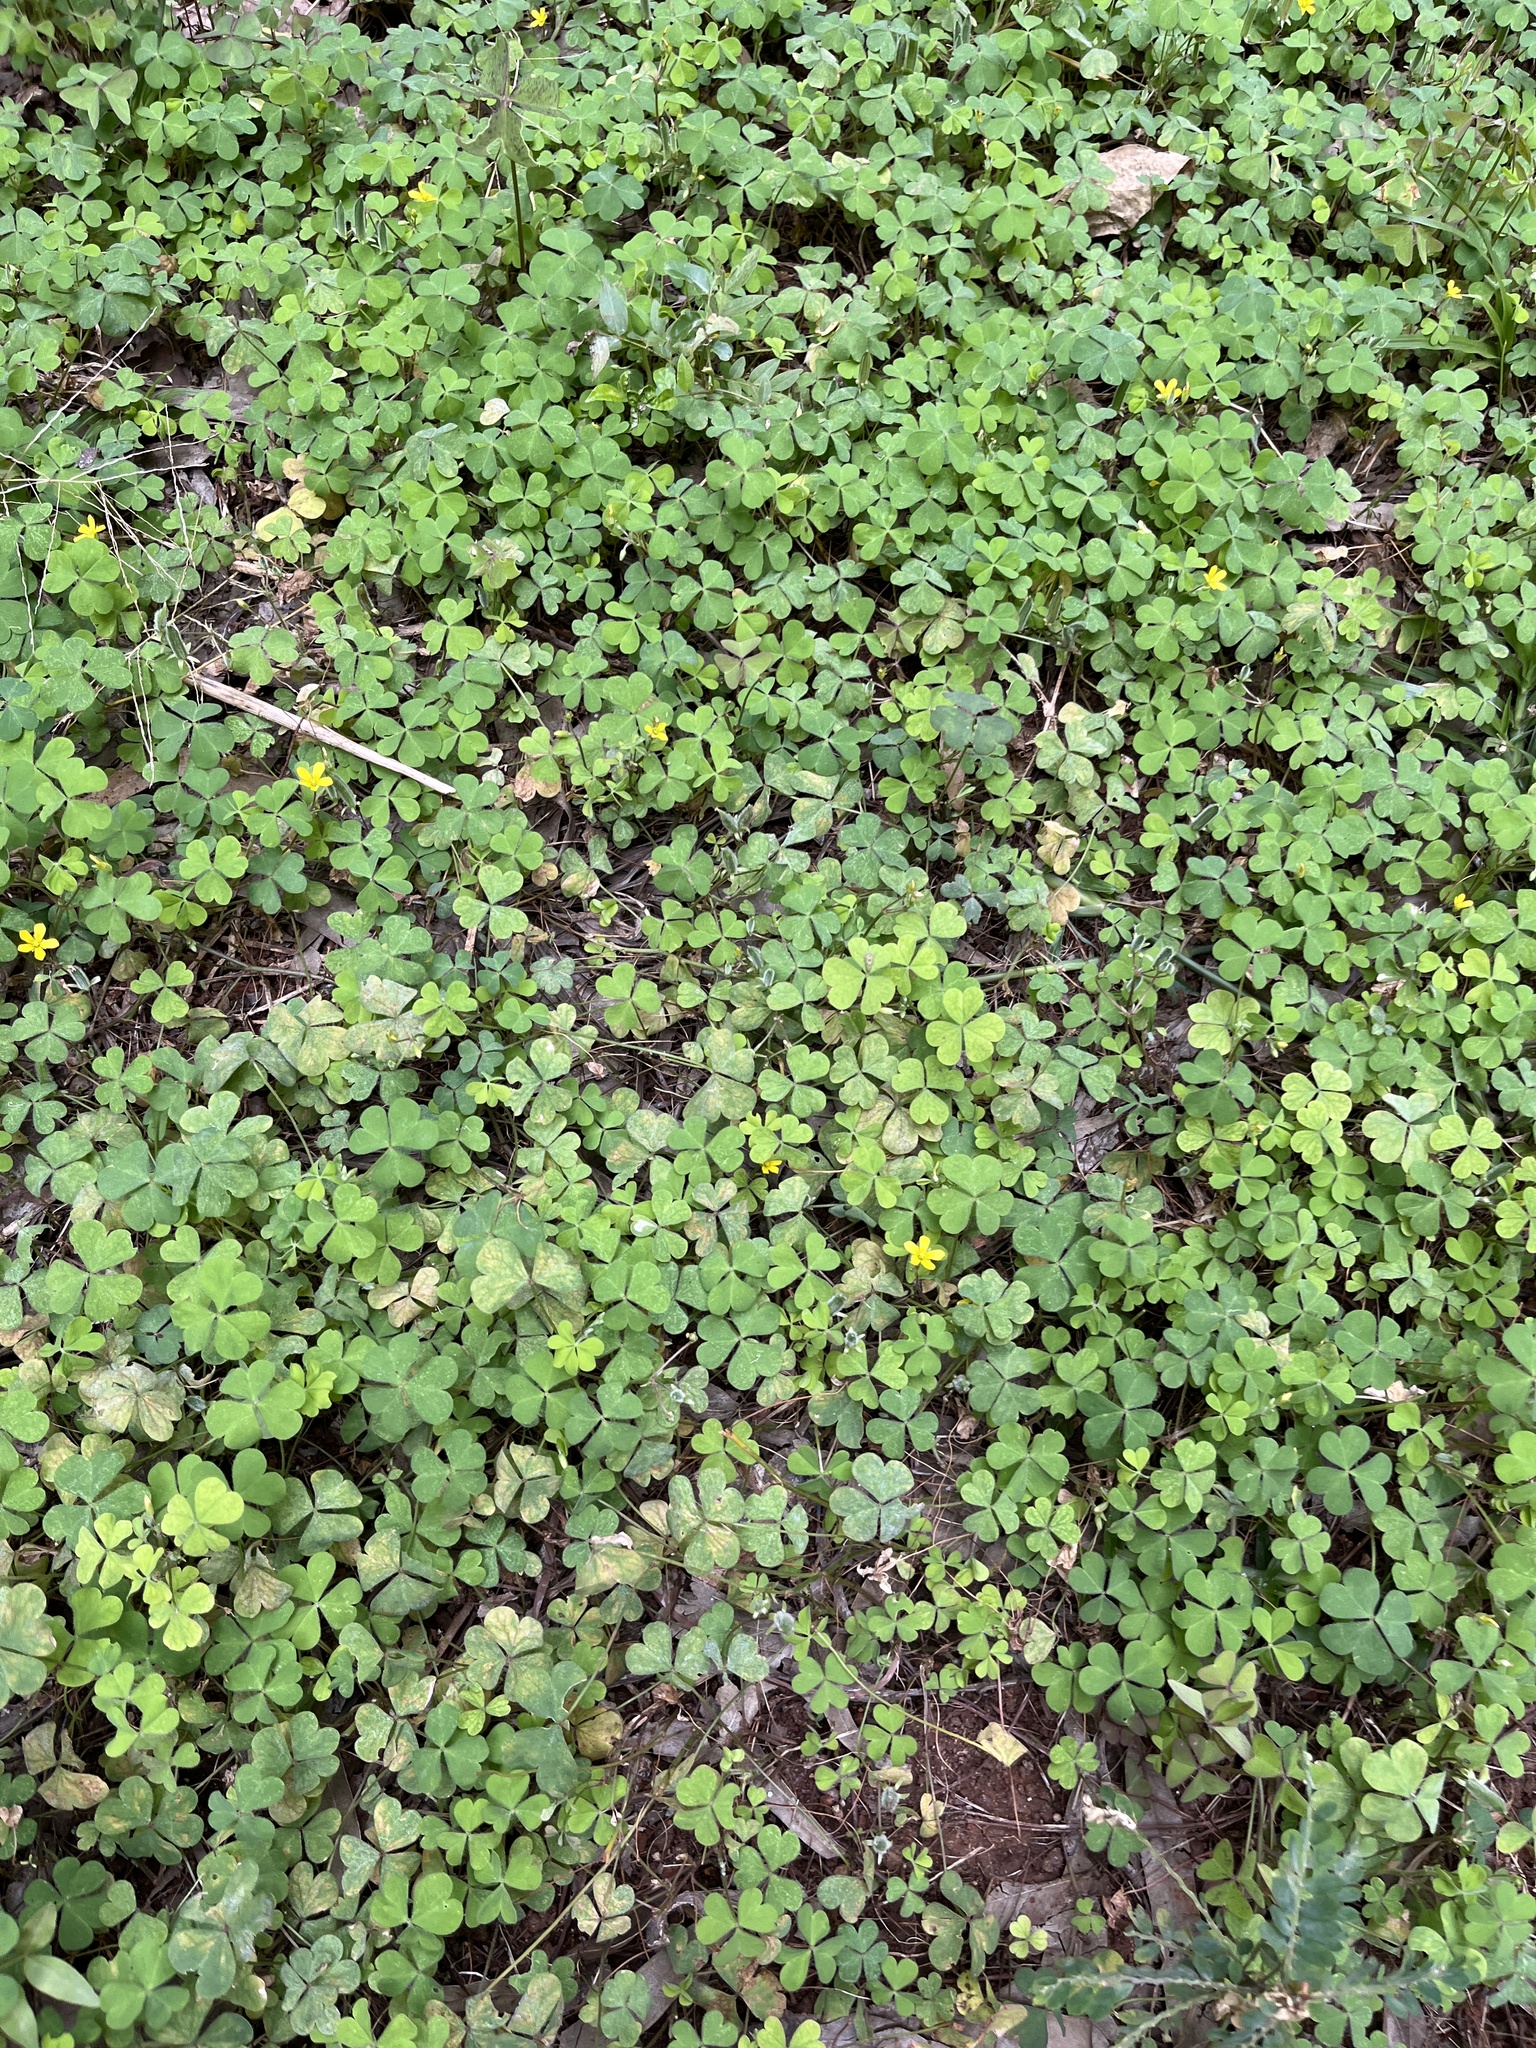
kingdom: Plantae
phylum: Tracheophyta
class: Magnoliopsida
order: Oxalidales
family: Oxalidaceae
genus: Oxalis
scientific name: Oxalis corniculata
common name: Procumbent yellow-sorrel
